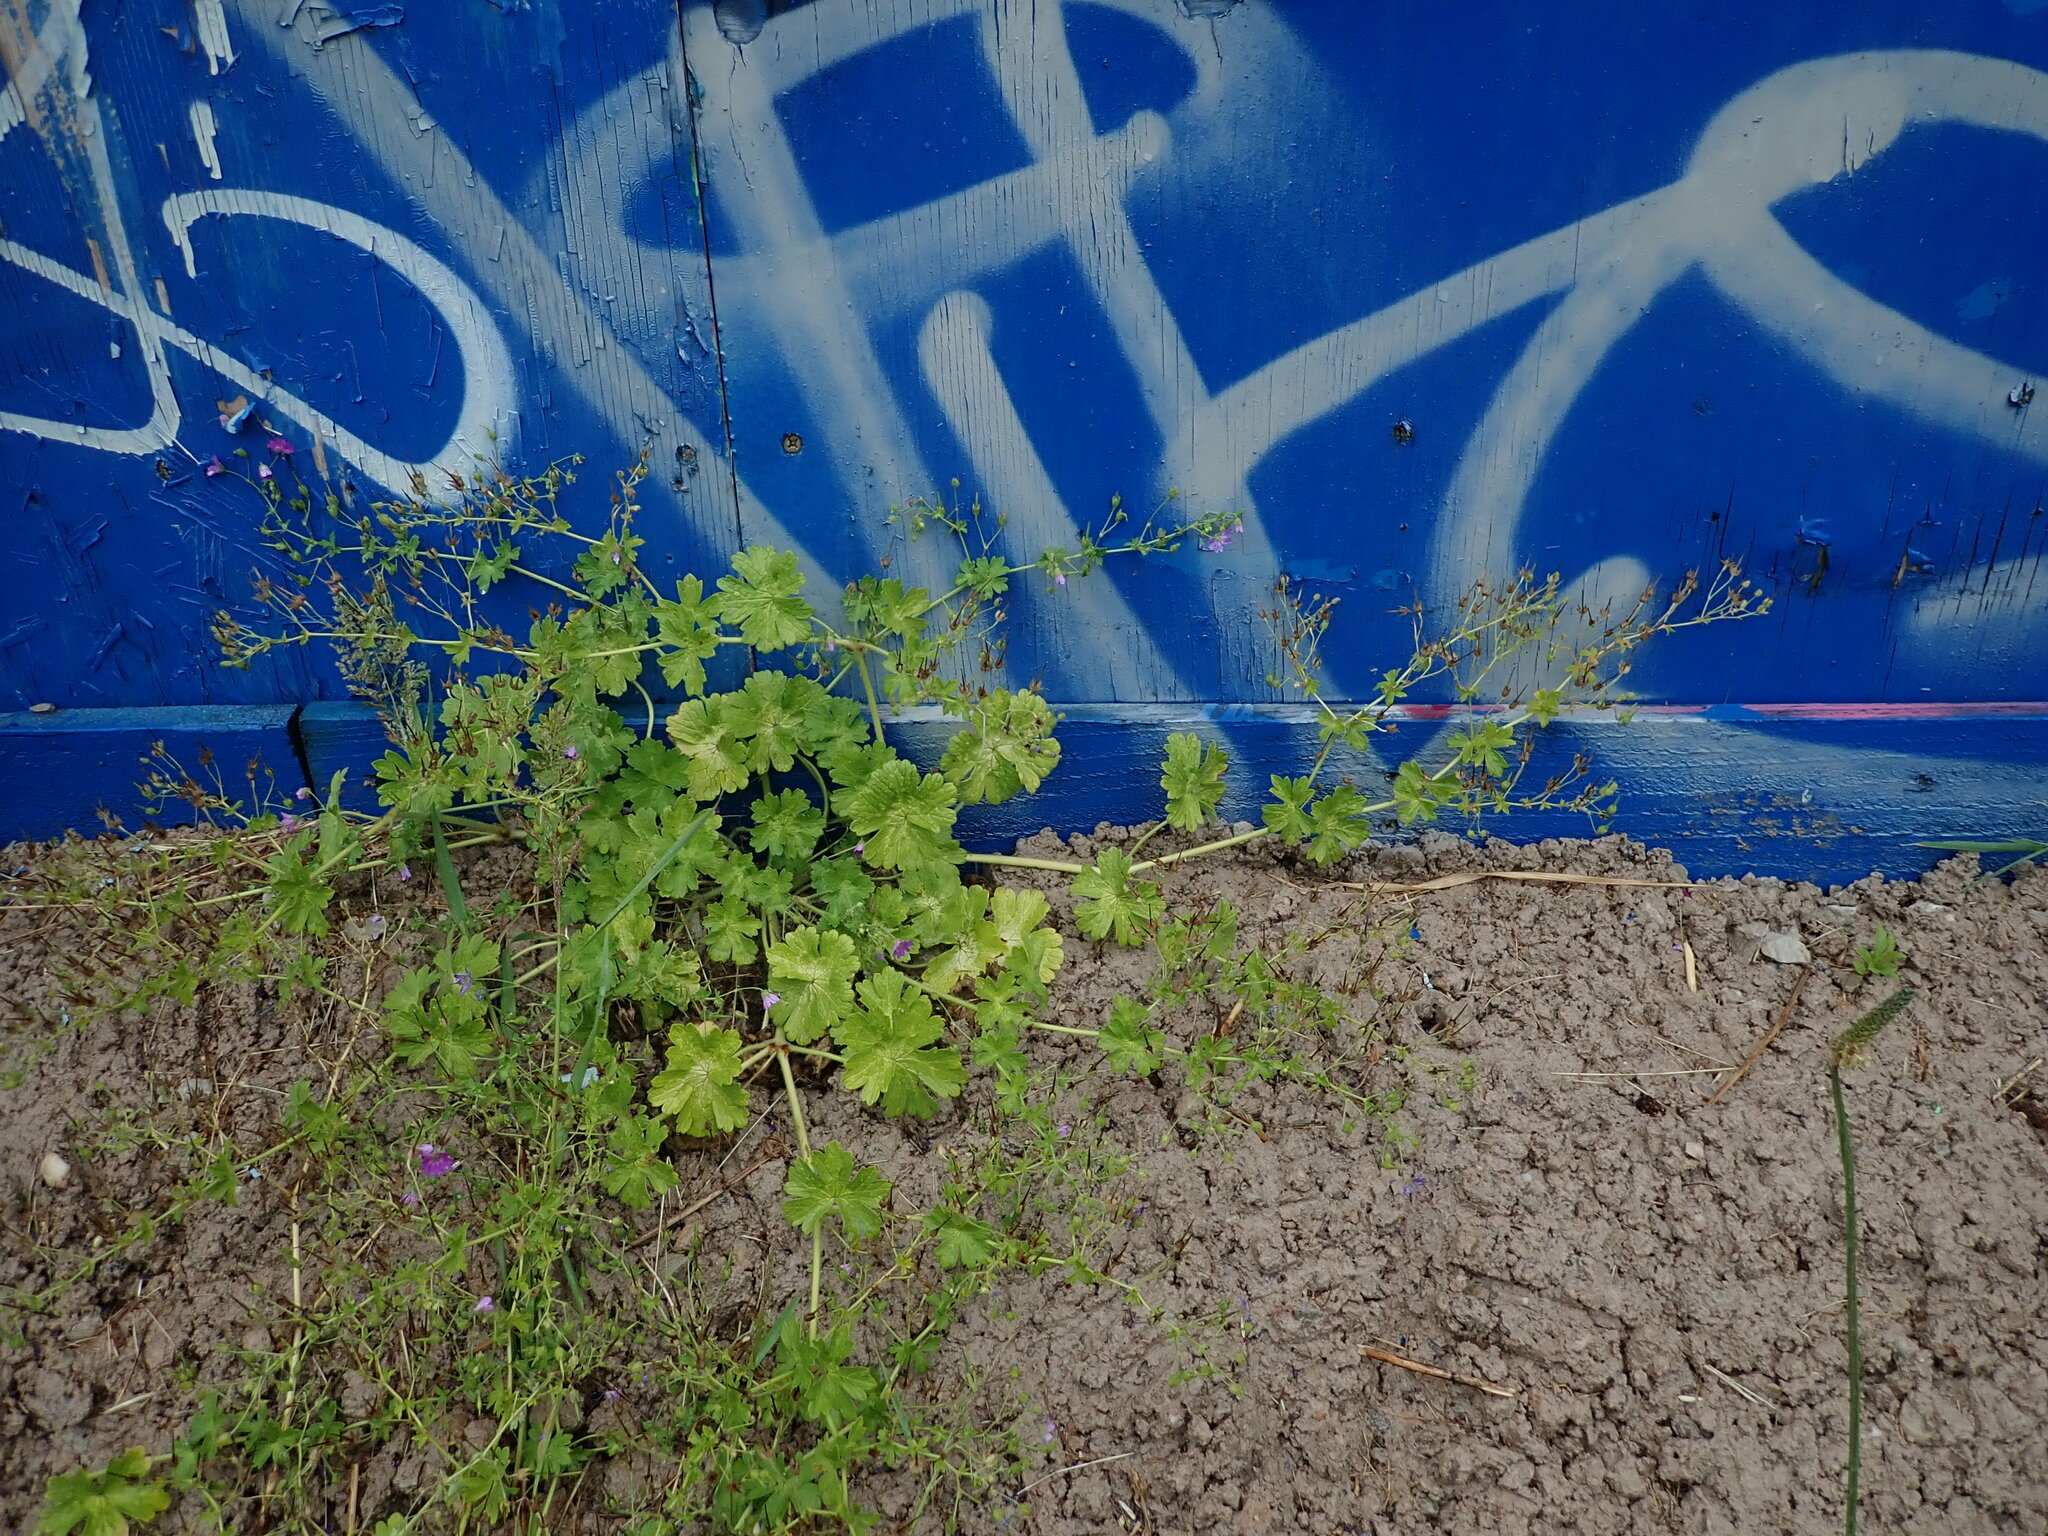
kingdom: Plantae
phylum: Tracheophyta
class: Magnoliopsida
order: Geraniales
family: Geraniaceae
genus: Geranium
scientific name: Geranium pyrenaicum
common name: Hedgerow crane's-bill
